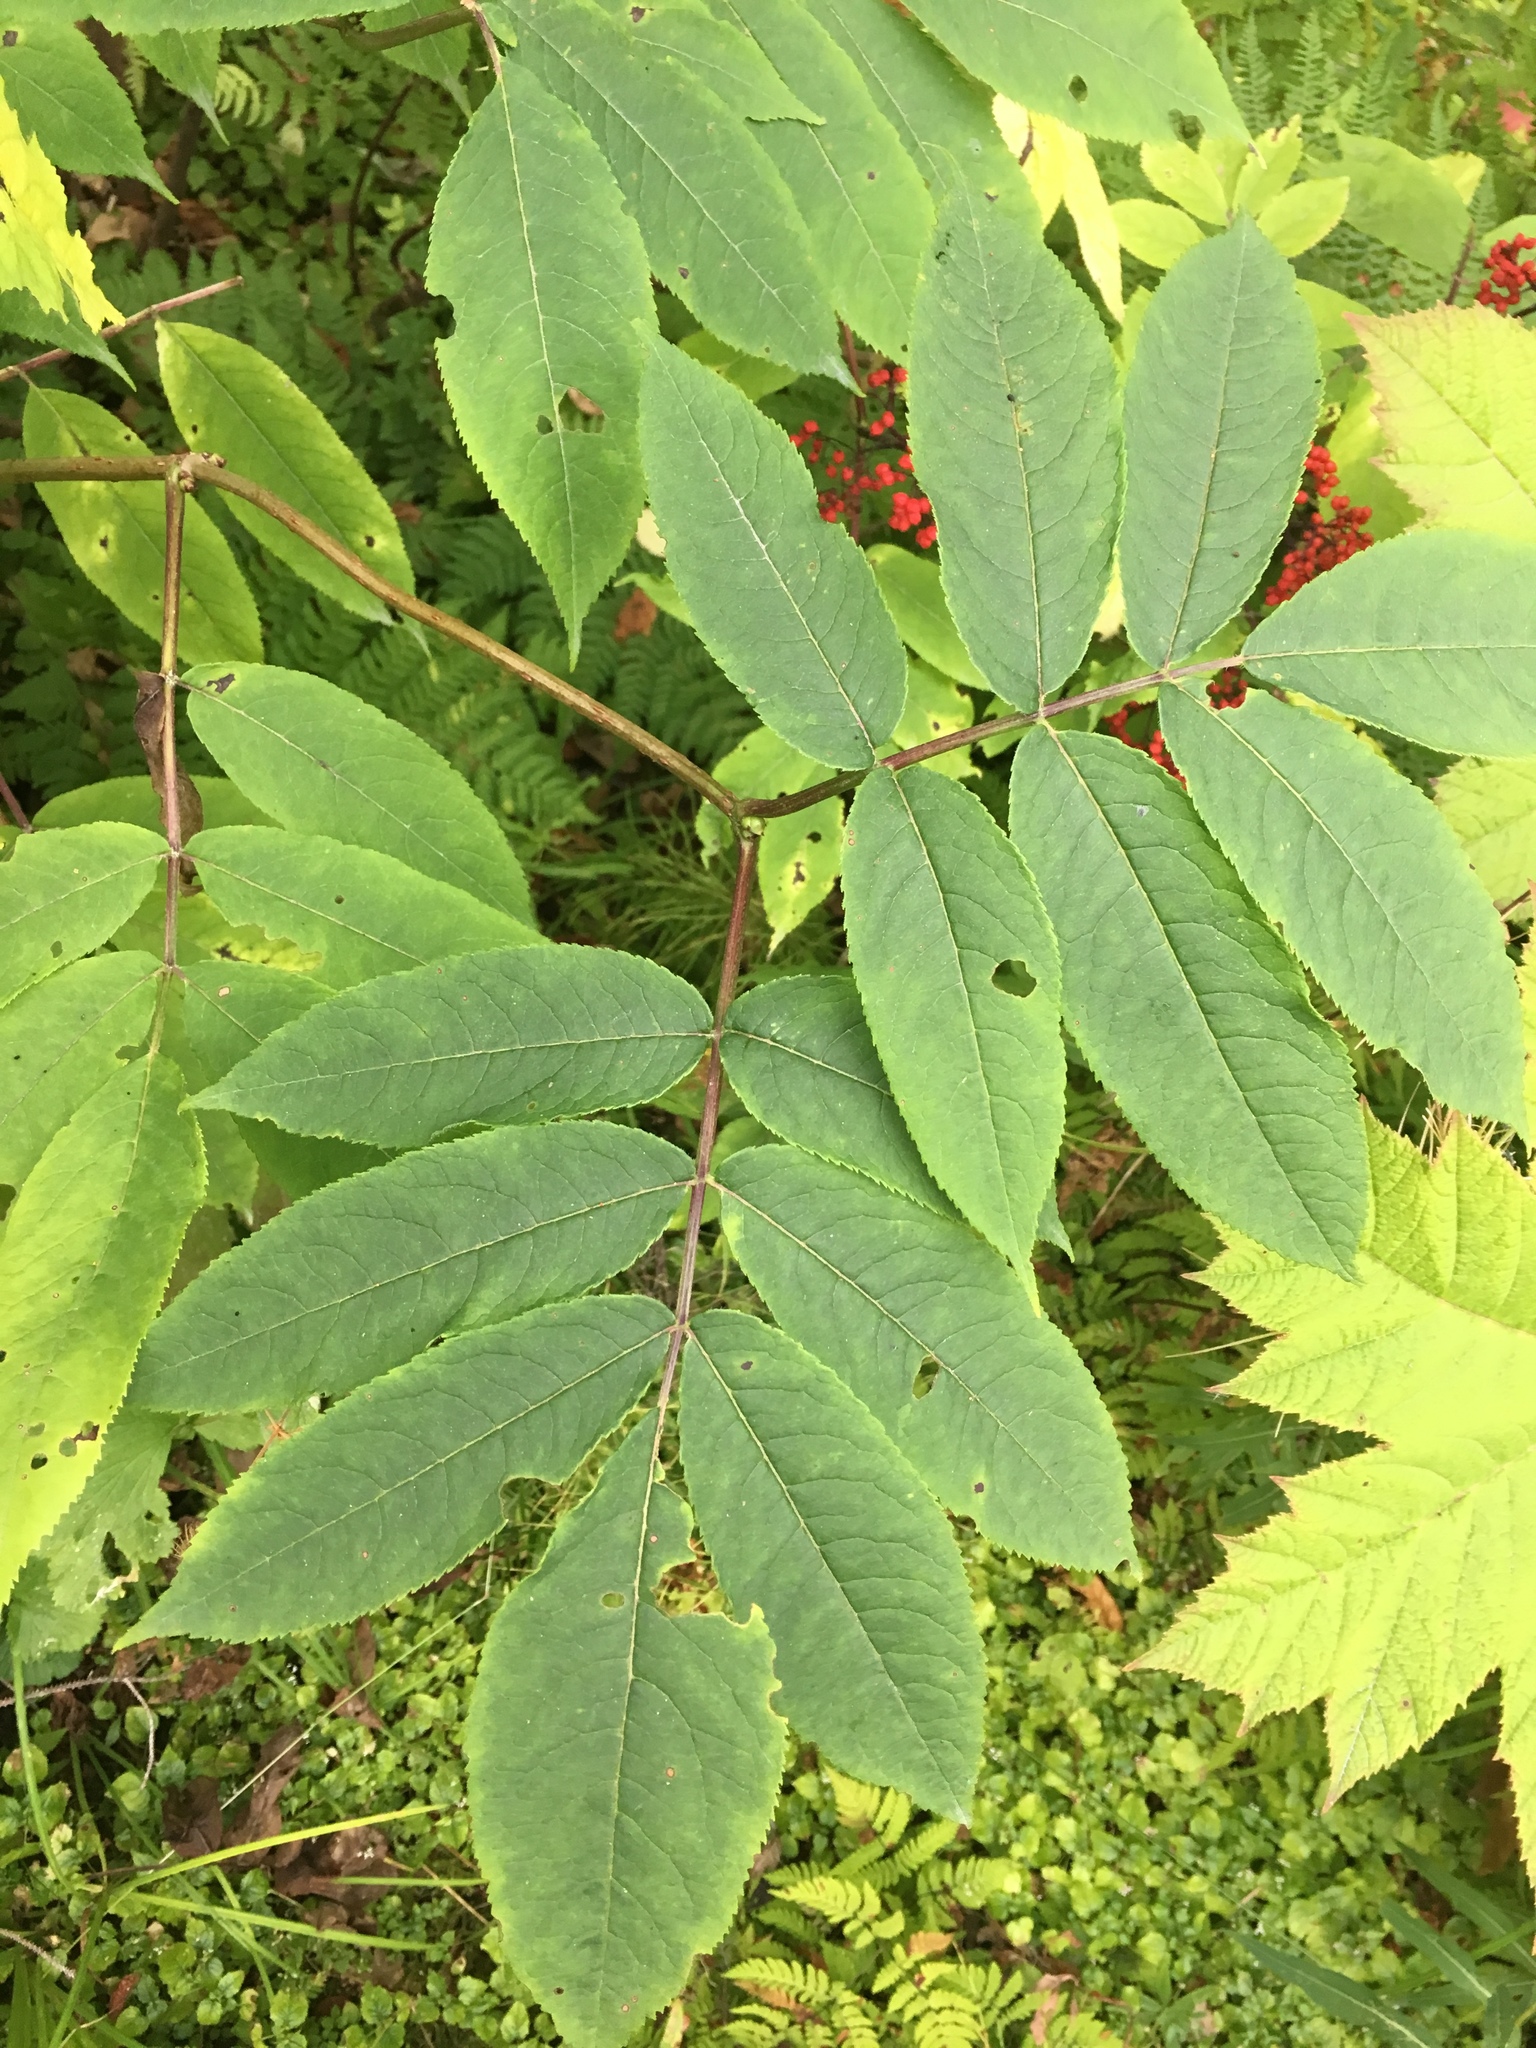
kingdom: Plantae
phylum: Tracheophyta
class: Magnoliopsida
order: Dipsacales
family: Viburnaceae
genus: Sambucus
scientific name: Sambucus racemosa
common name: Red-berried elder
